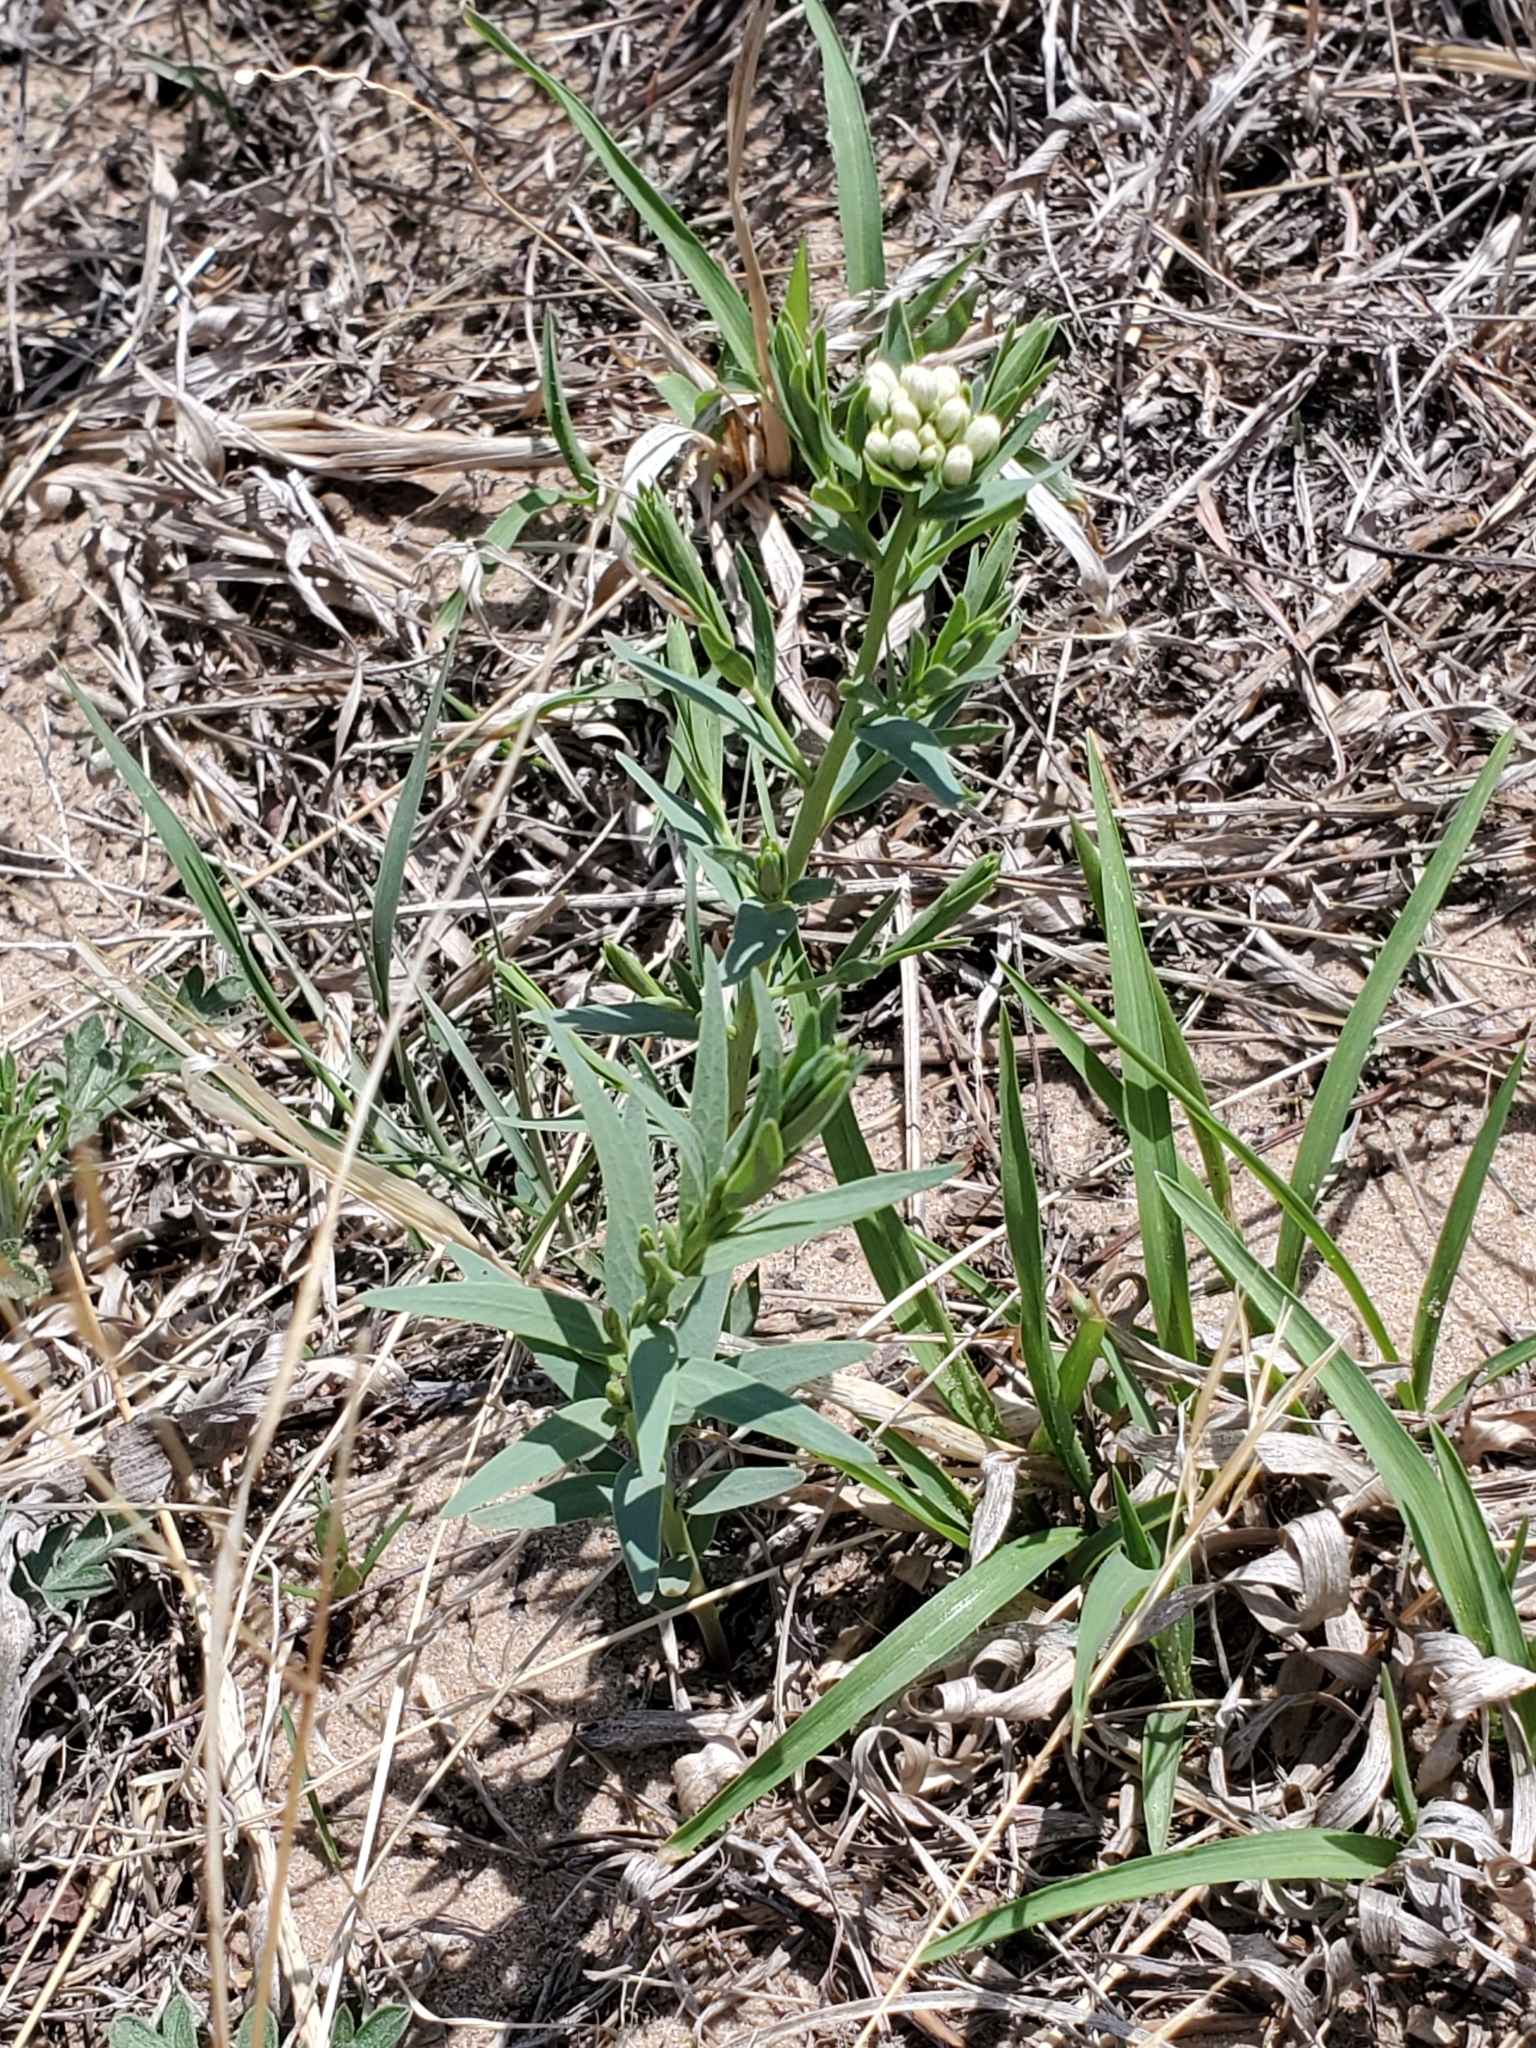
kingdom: Plantae
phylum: Tracheophyta
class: Magnoliopsida
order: Santalales
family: Comandraceae
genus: Comandra
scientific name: Comandra umbellata
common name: Bastard toadflax
